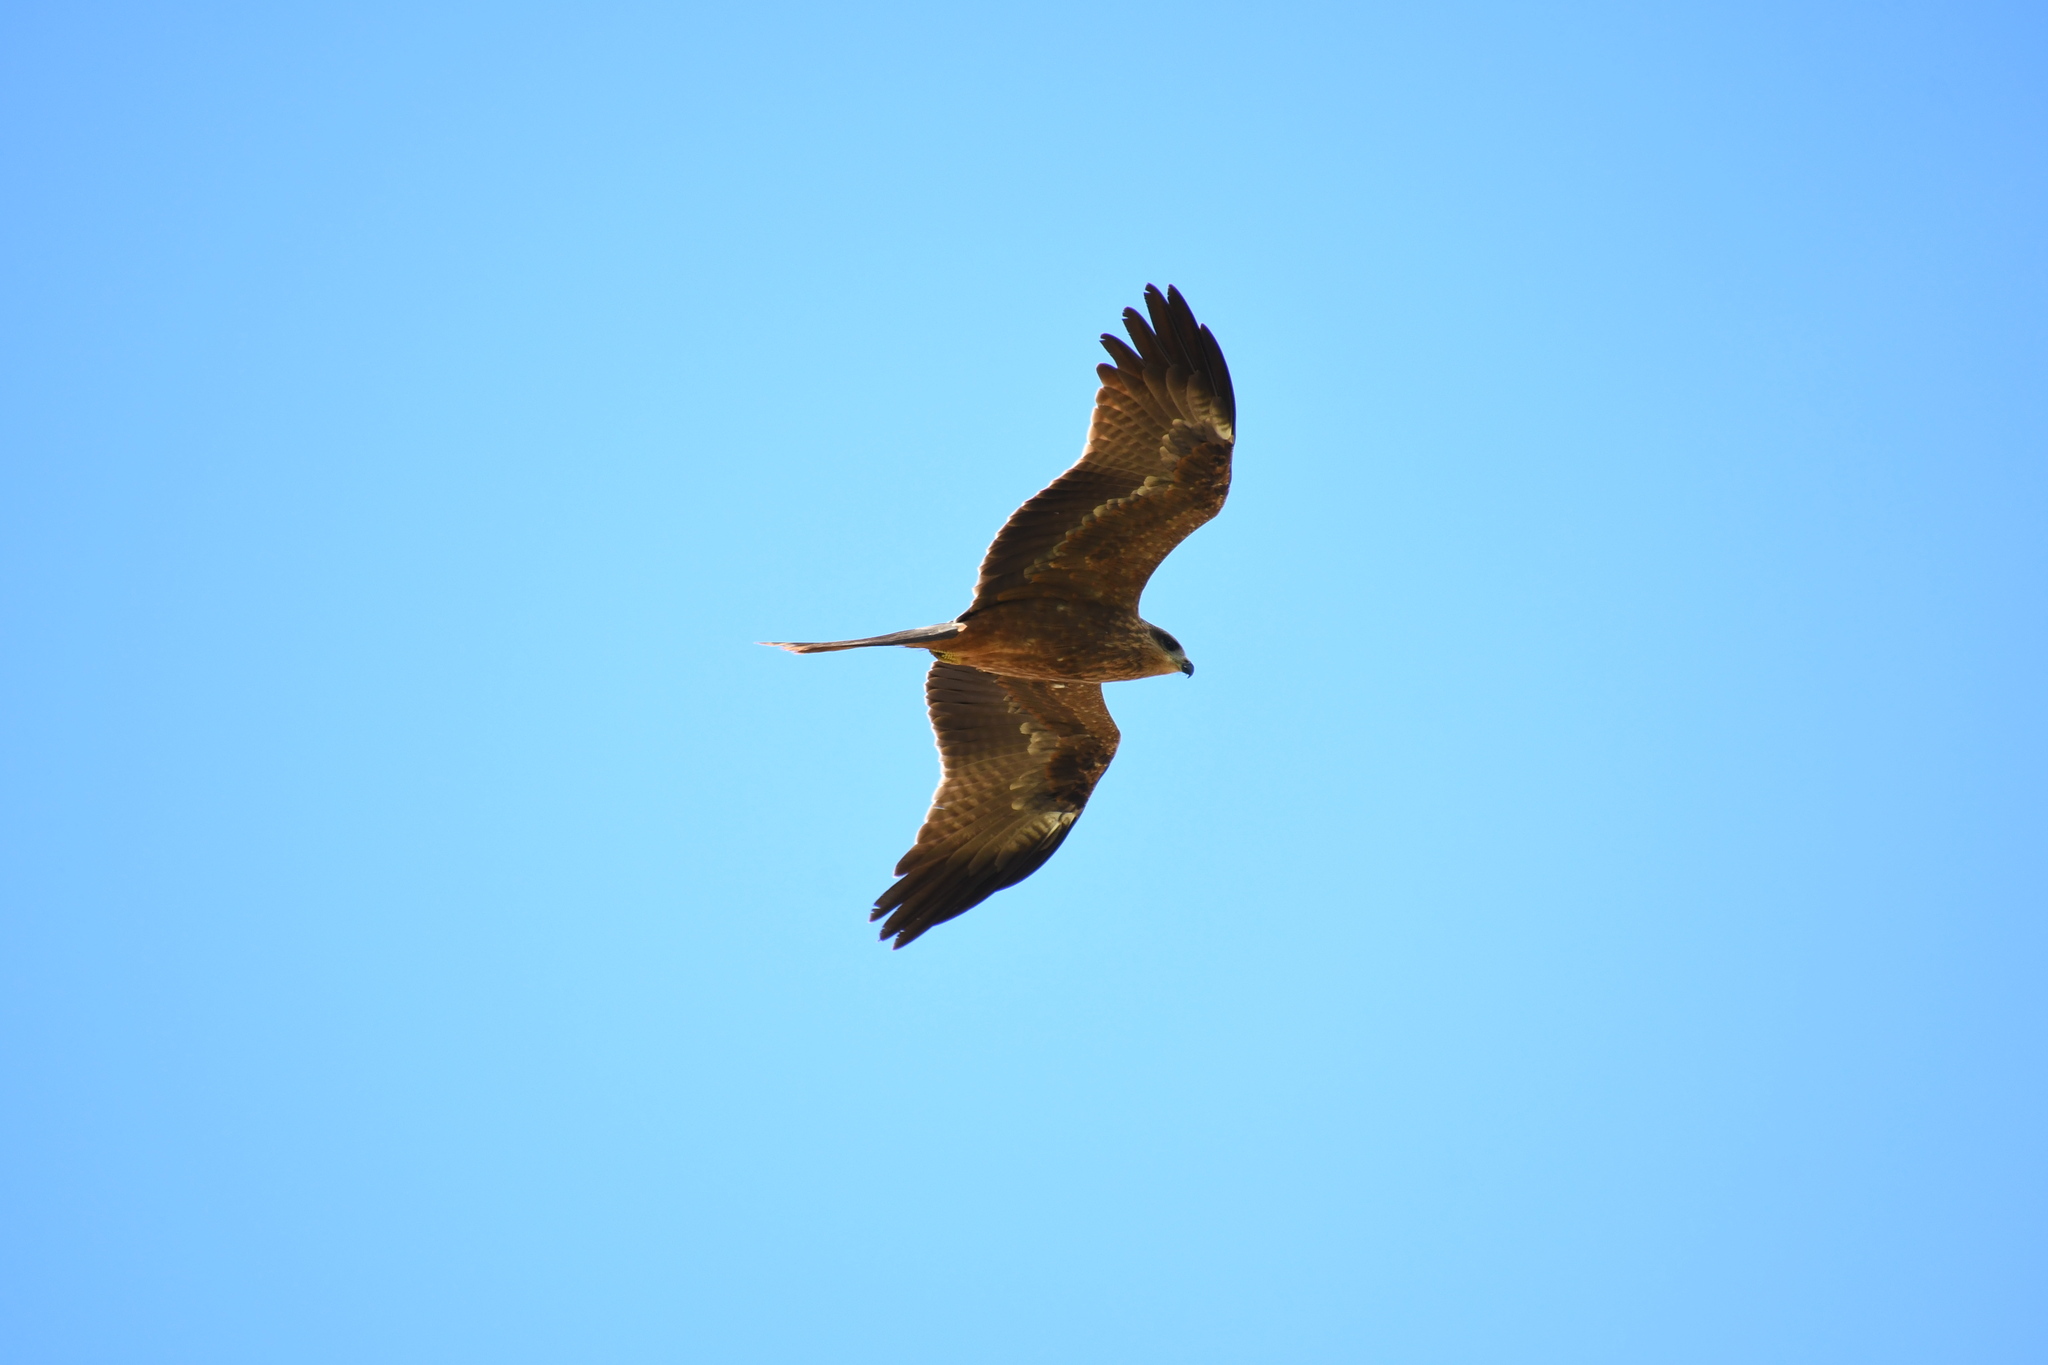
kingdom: Animalia
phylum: Chordata
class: Aves
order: Accipitriformes
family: Accipitridae
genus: Milvus
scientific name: Milvus migrans
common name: Black kite
